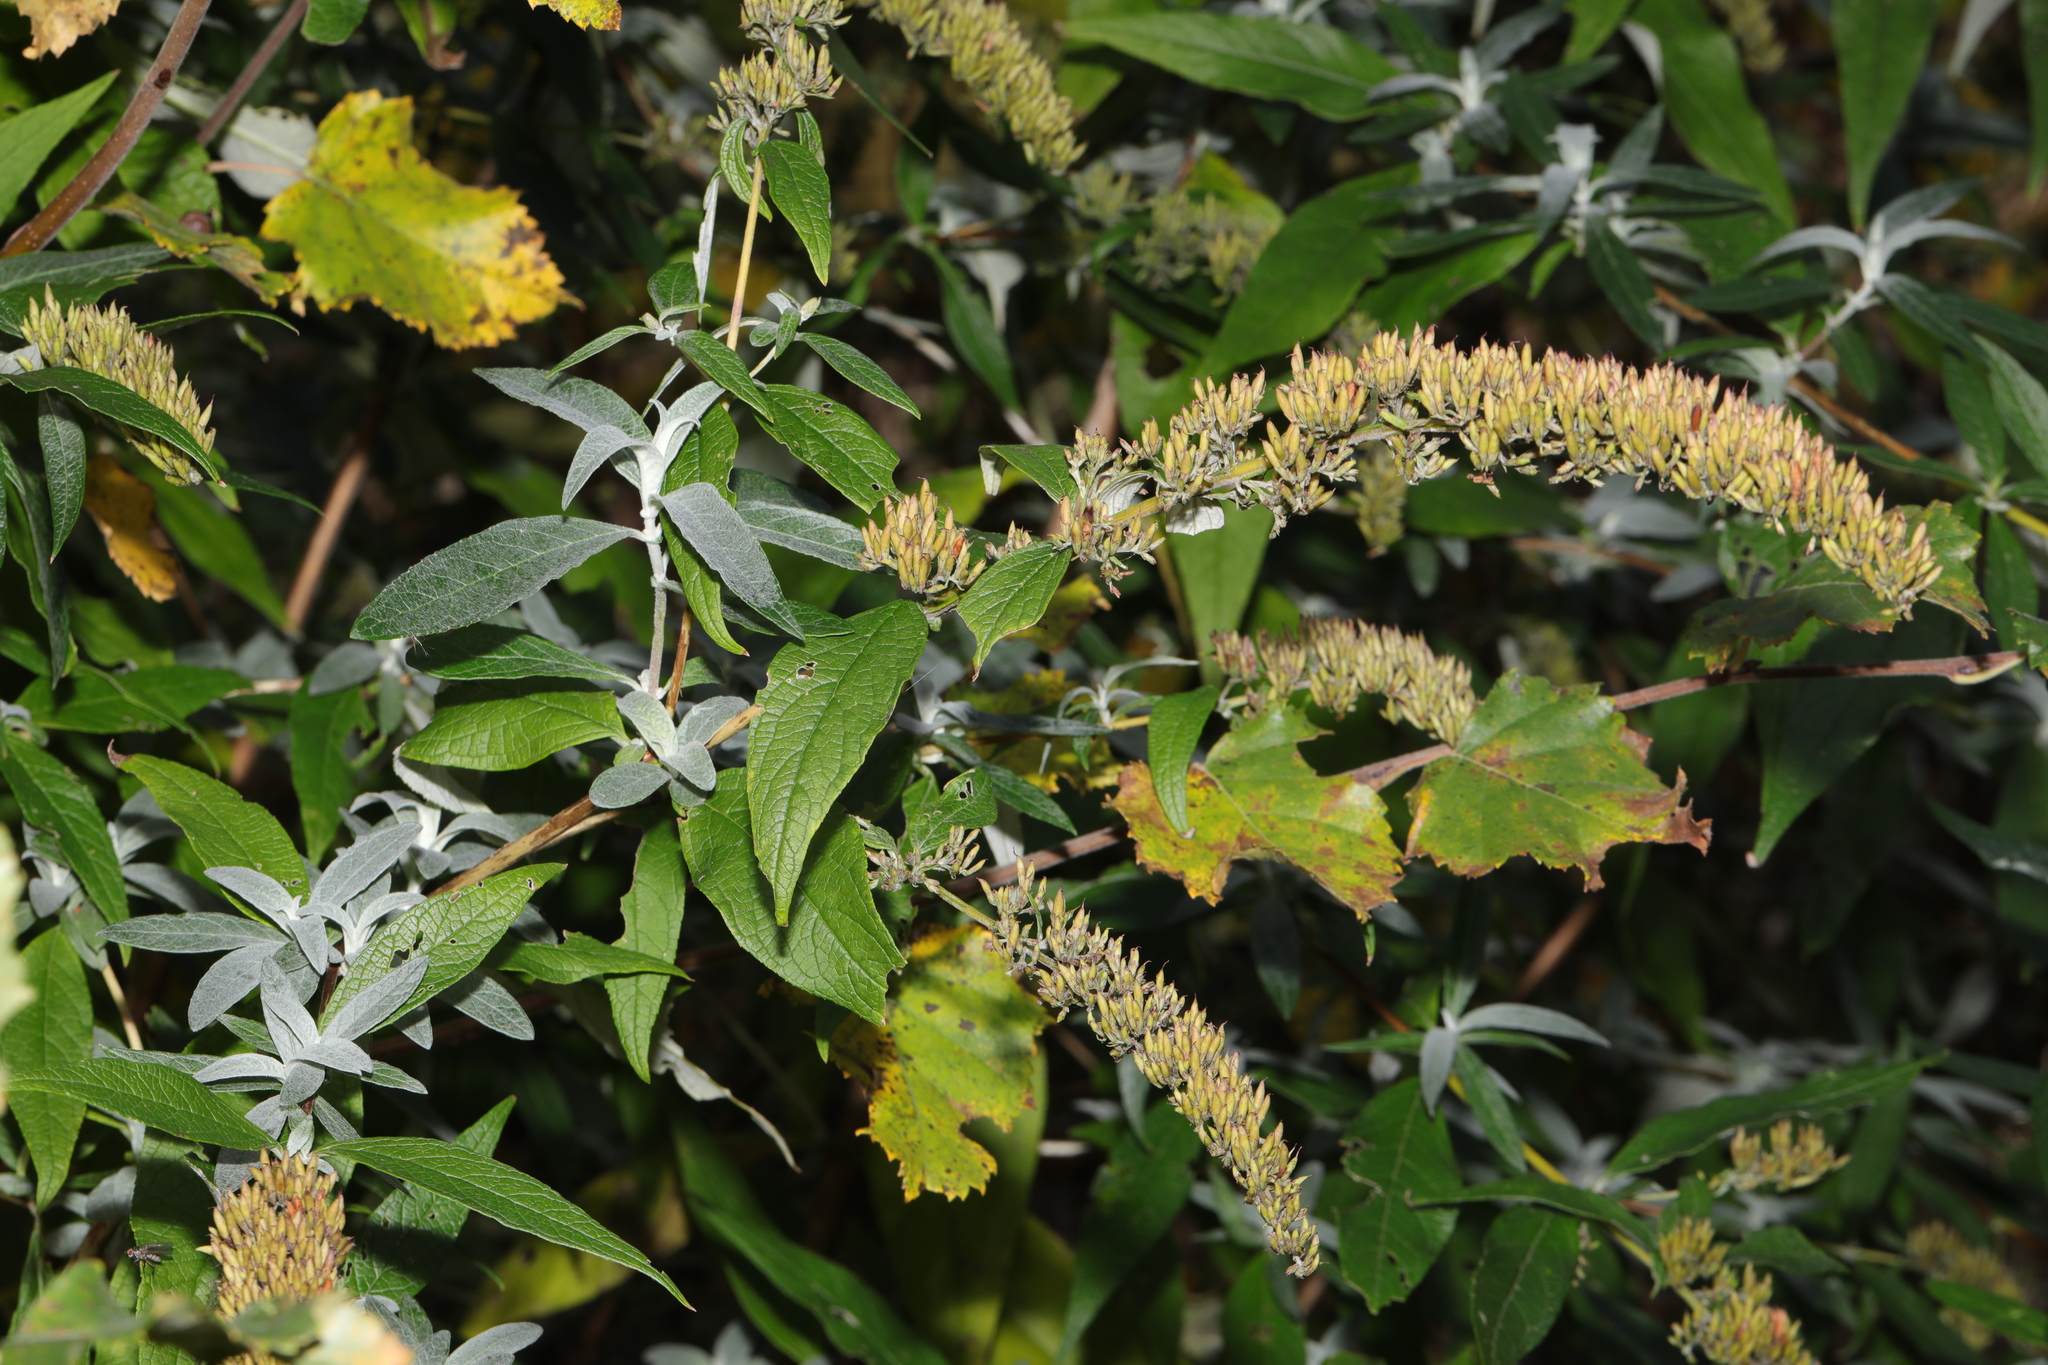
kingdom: Plantae
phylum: Tracheophyta
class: Magnoliopsida
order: Lamiales
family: Scrophulariaceae
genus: Buddleja
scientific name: Buddleja davidii
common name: Butterfly-bush
